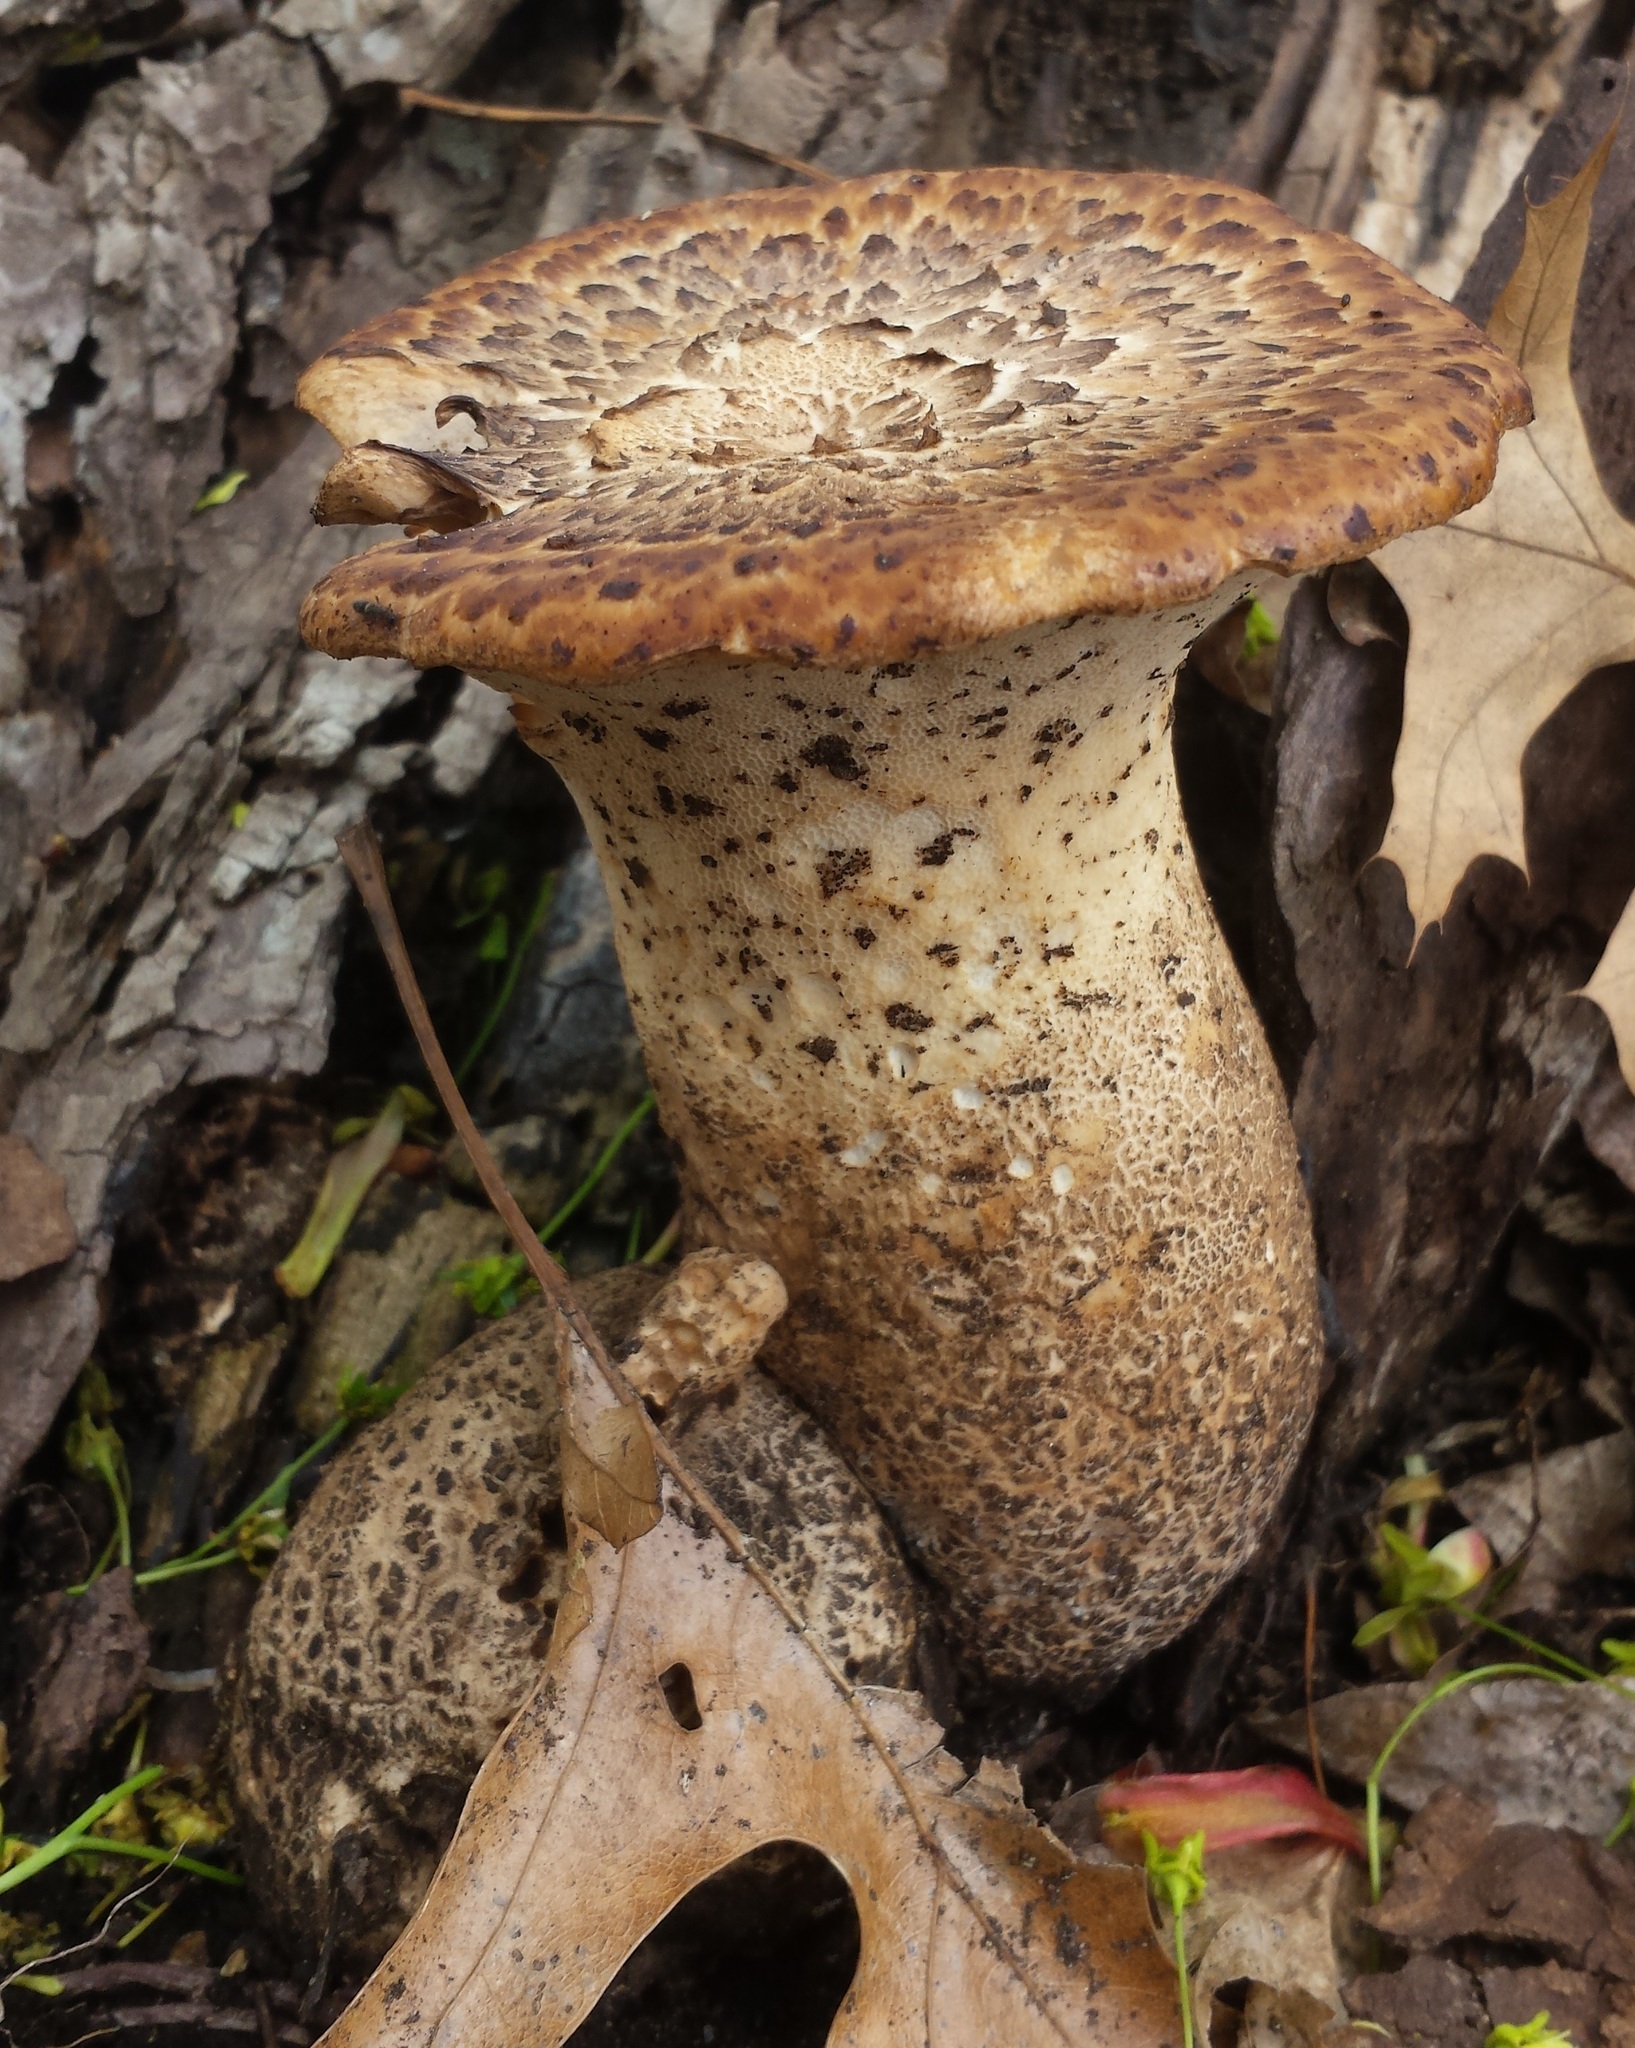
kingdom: Fungi
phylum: Basidiomycota
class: Agaricomycetes
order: Polyporales
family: Polyporaceae
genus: Cerioporus
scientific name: Cerioporus squamosus
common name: Dryad's saddle
